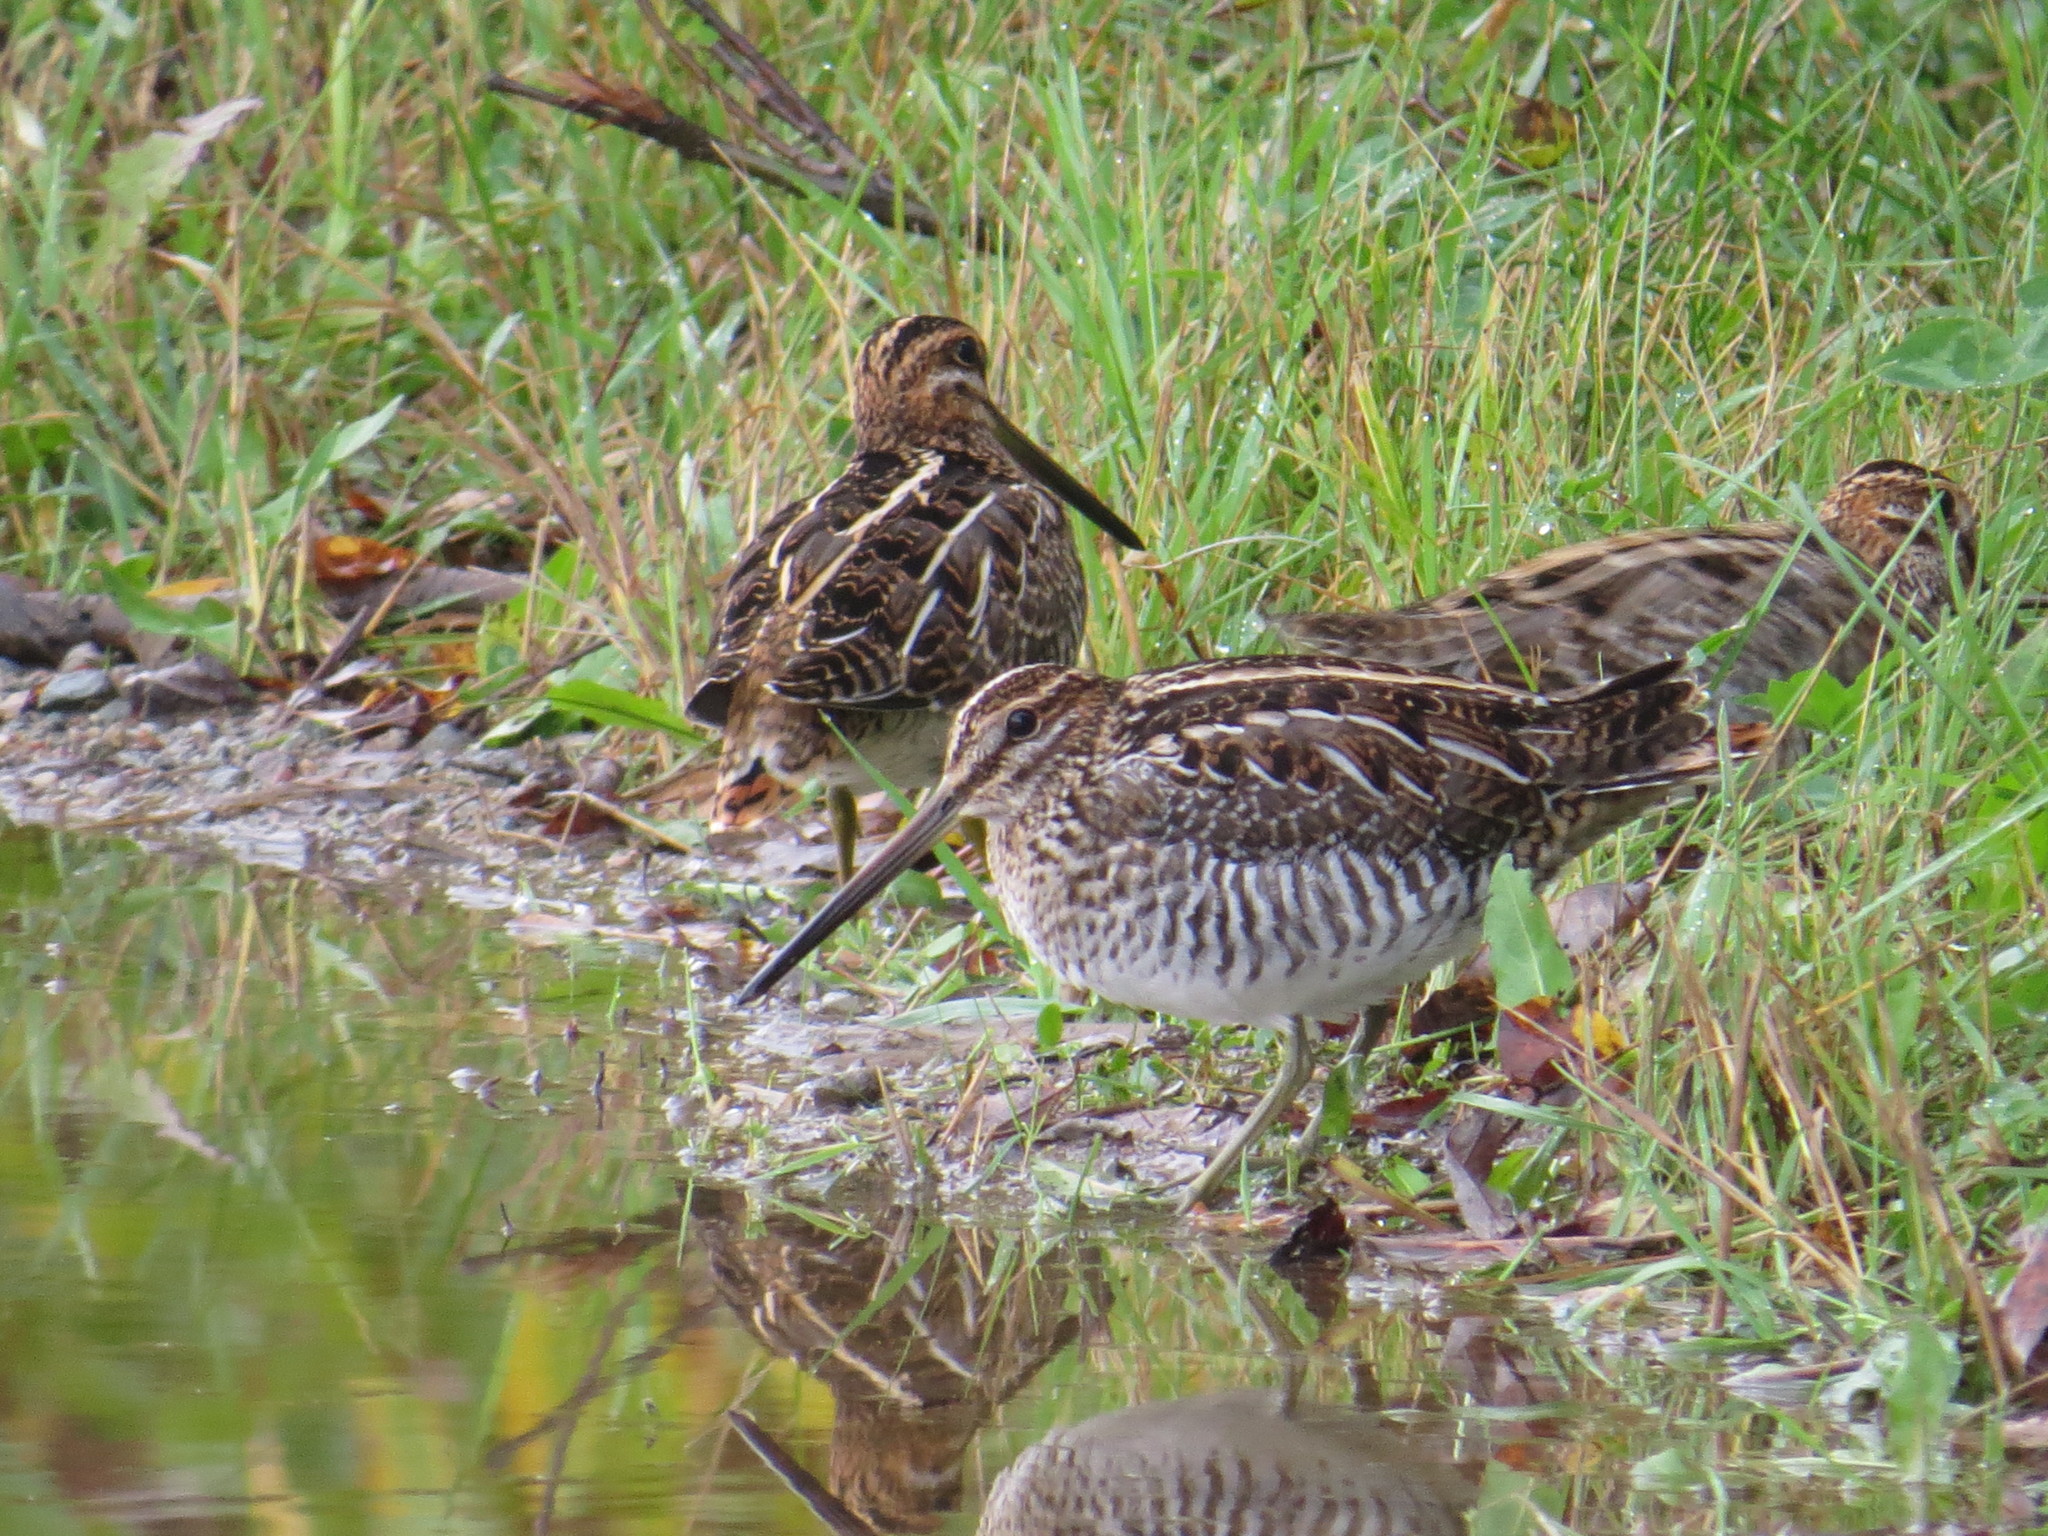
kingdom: Animalia
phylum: Chordata
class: Aves
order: Charadriiformes
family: Scolopacidae
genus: Gallinago
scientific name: Gallinago delicata
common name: Wilson's snipe
